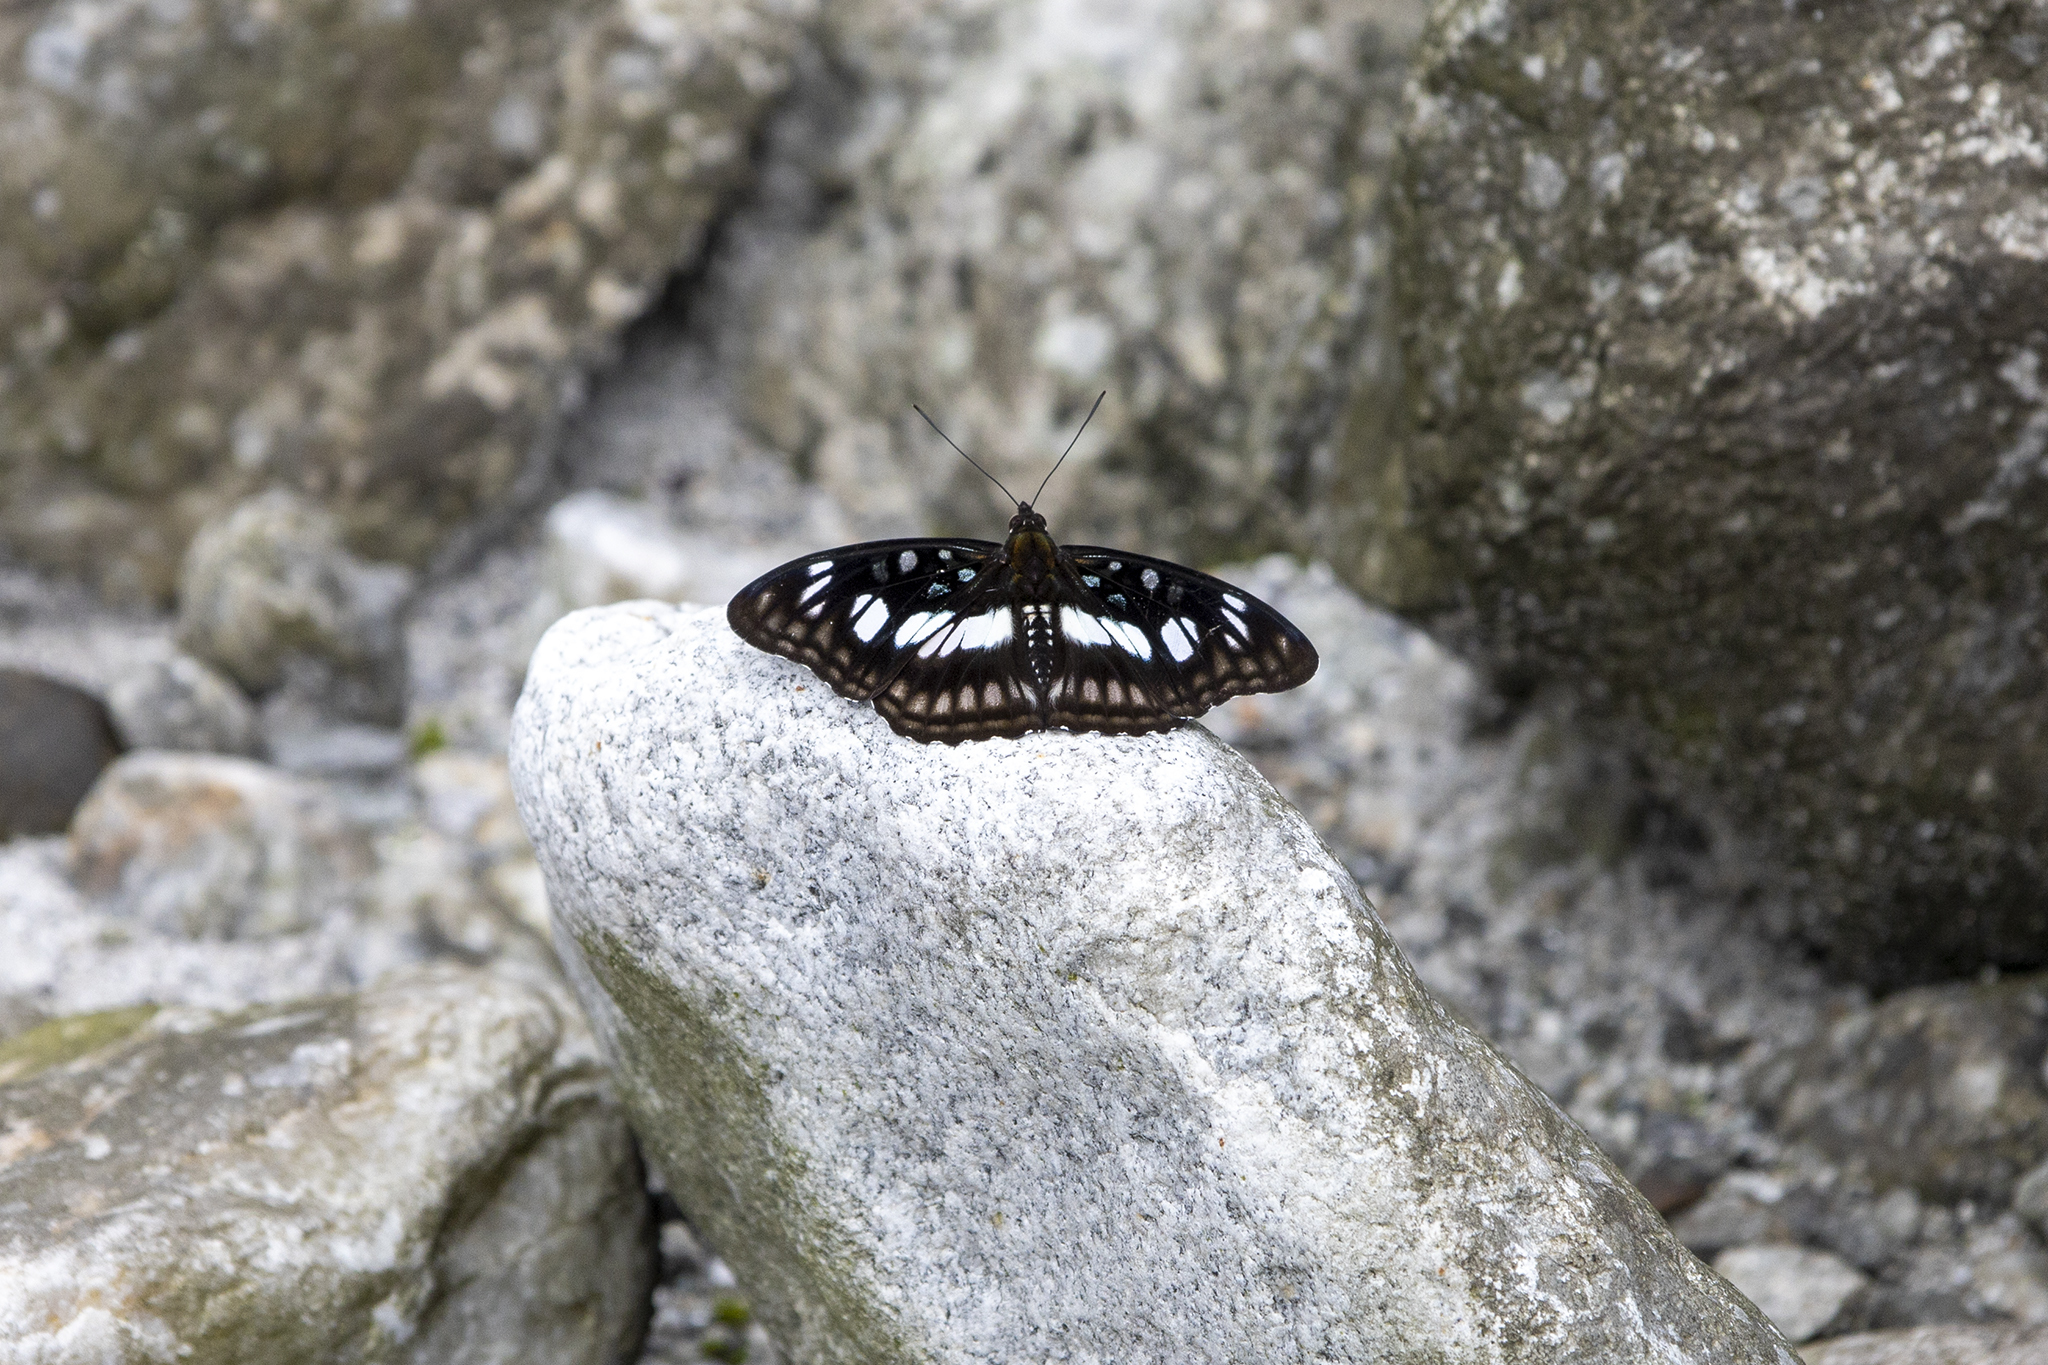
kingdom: Animalia
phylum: Arthropoda
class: Insecta
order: Lepidoptera
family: Nymphalidae
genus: Parathyma
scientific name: Parathyma ranga
